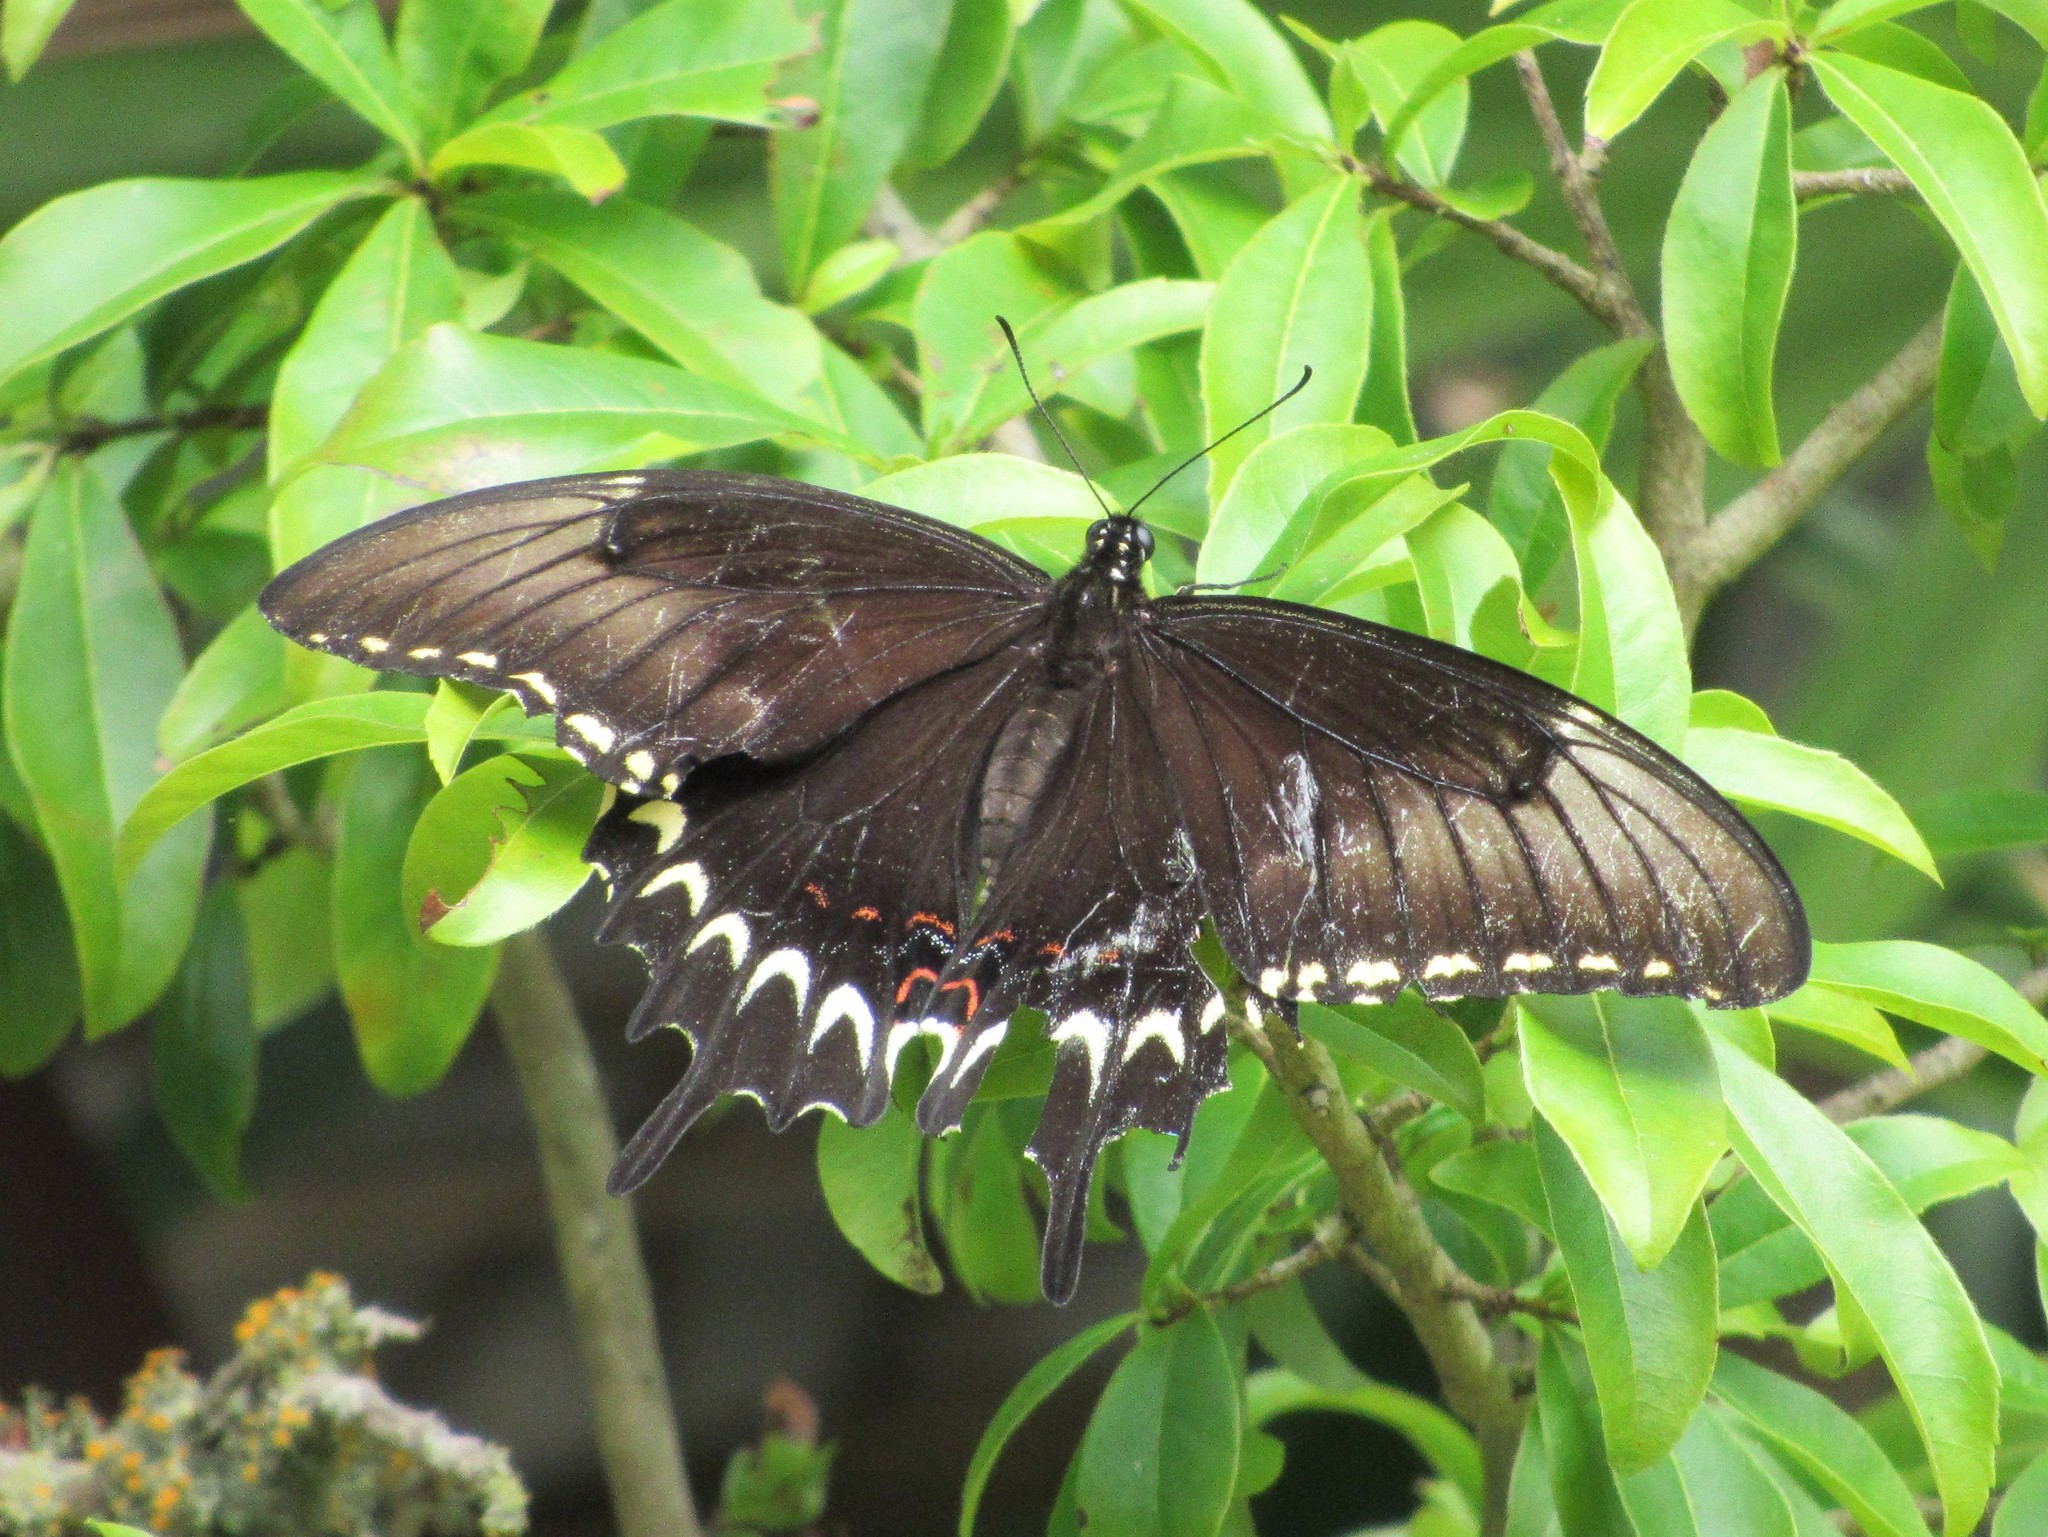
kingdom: Animalia
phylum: Arthropoda
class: Insecta
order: Lepidoptera
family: Papilionidae
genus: Papilio
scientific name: Papilio astyalus
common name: Astyalus swallowtail
